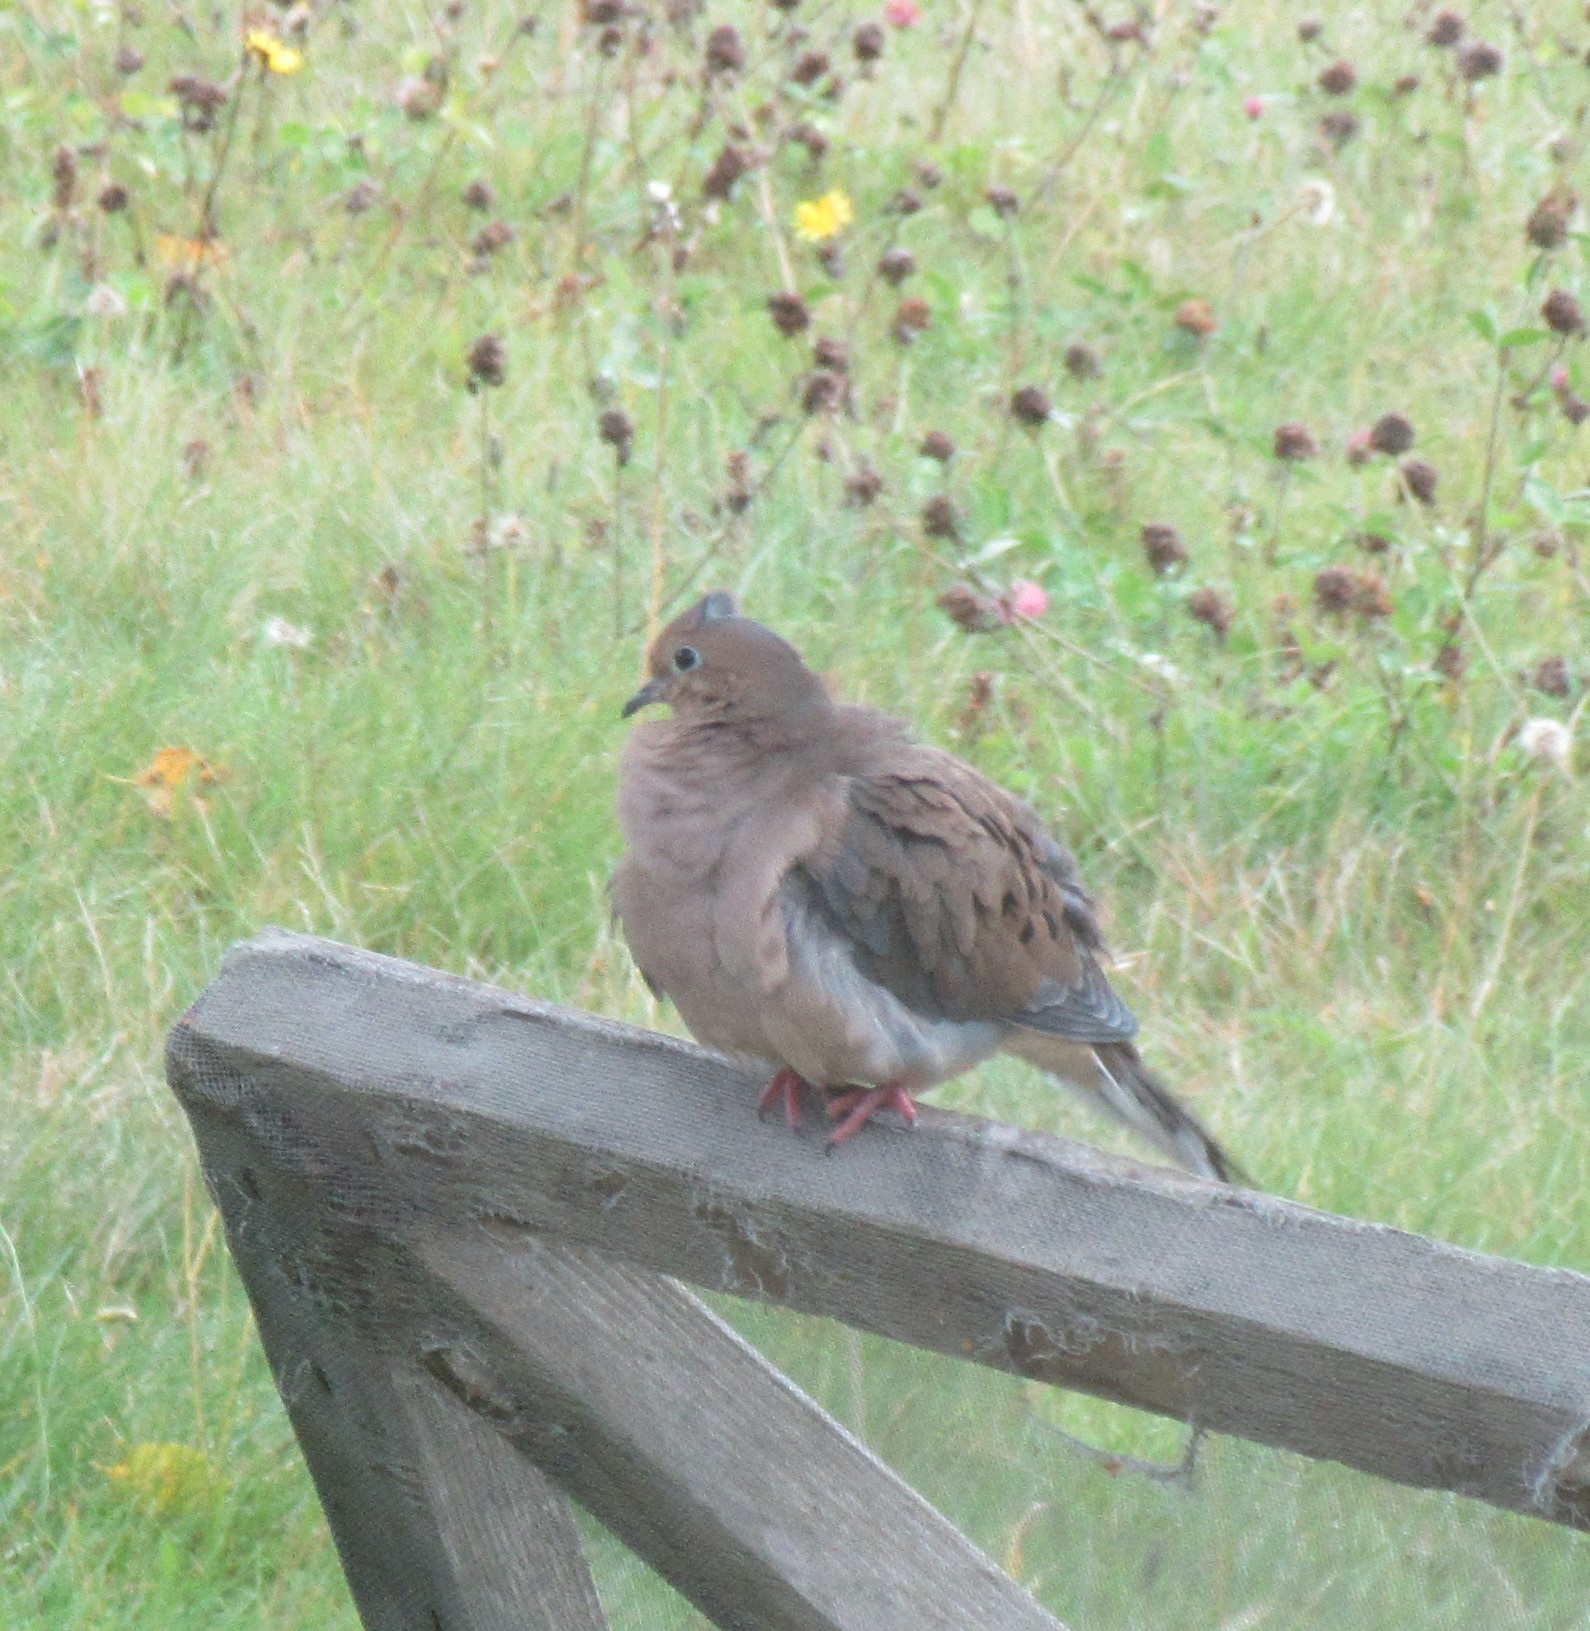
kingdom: Animalia
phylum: Chordata
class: Aves
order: Columbiformes
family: Columbidae
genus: Zenaida
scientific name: Zenaida macroura
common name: Mourning dove
